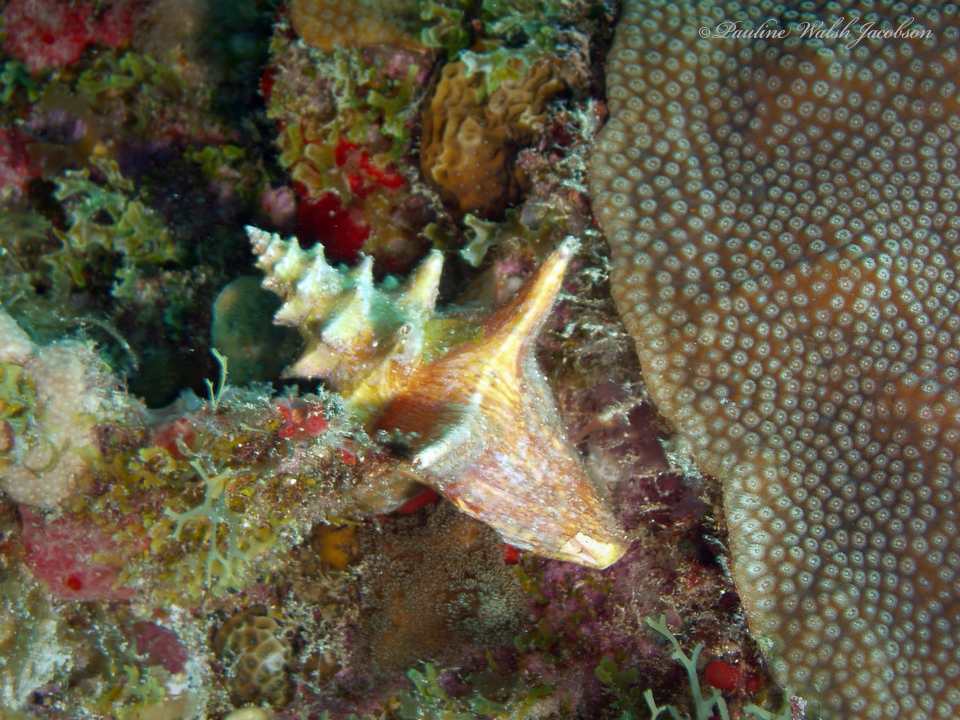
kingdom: Animalia
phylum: Mollusca
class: Gastropoda
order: Littorinimorpha
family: Strombidae
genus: Aliger
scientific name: Aliger gigas
